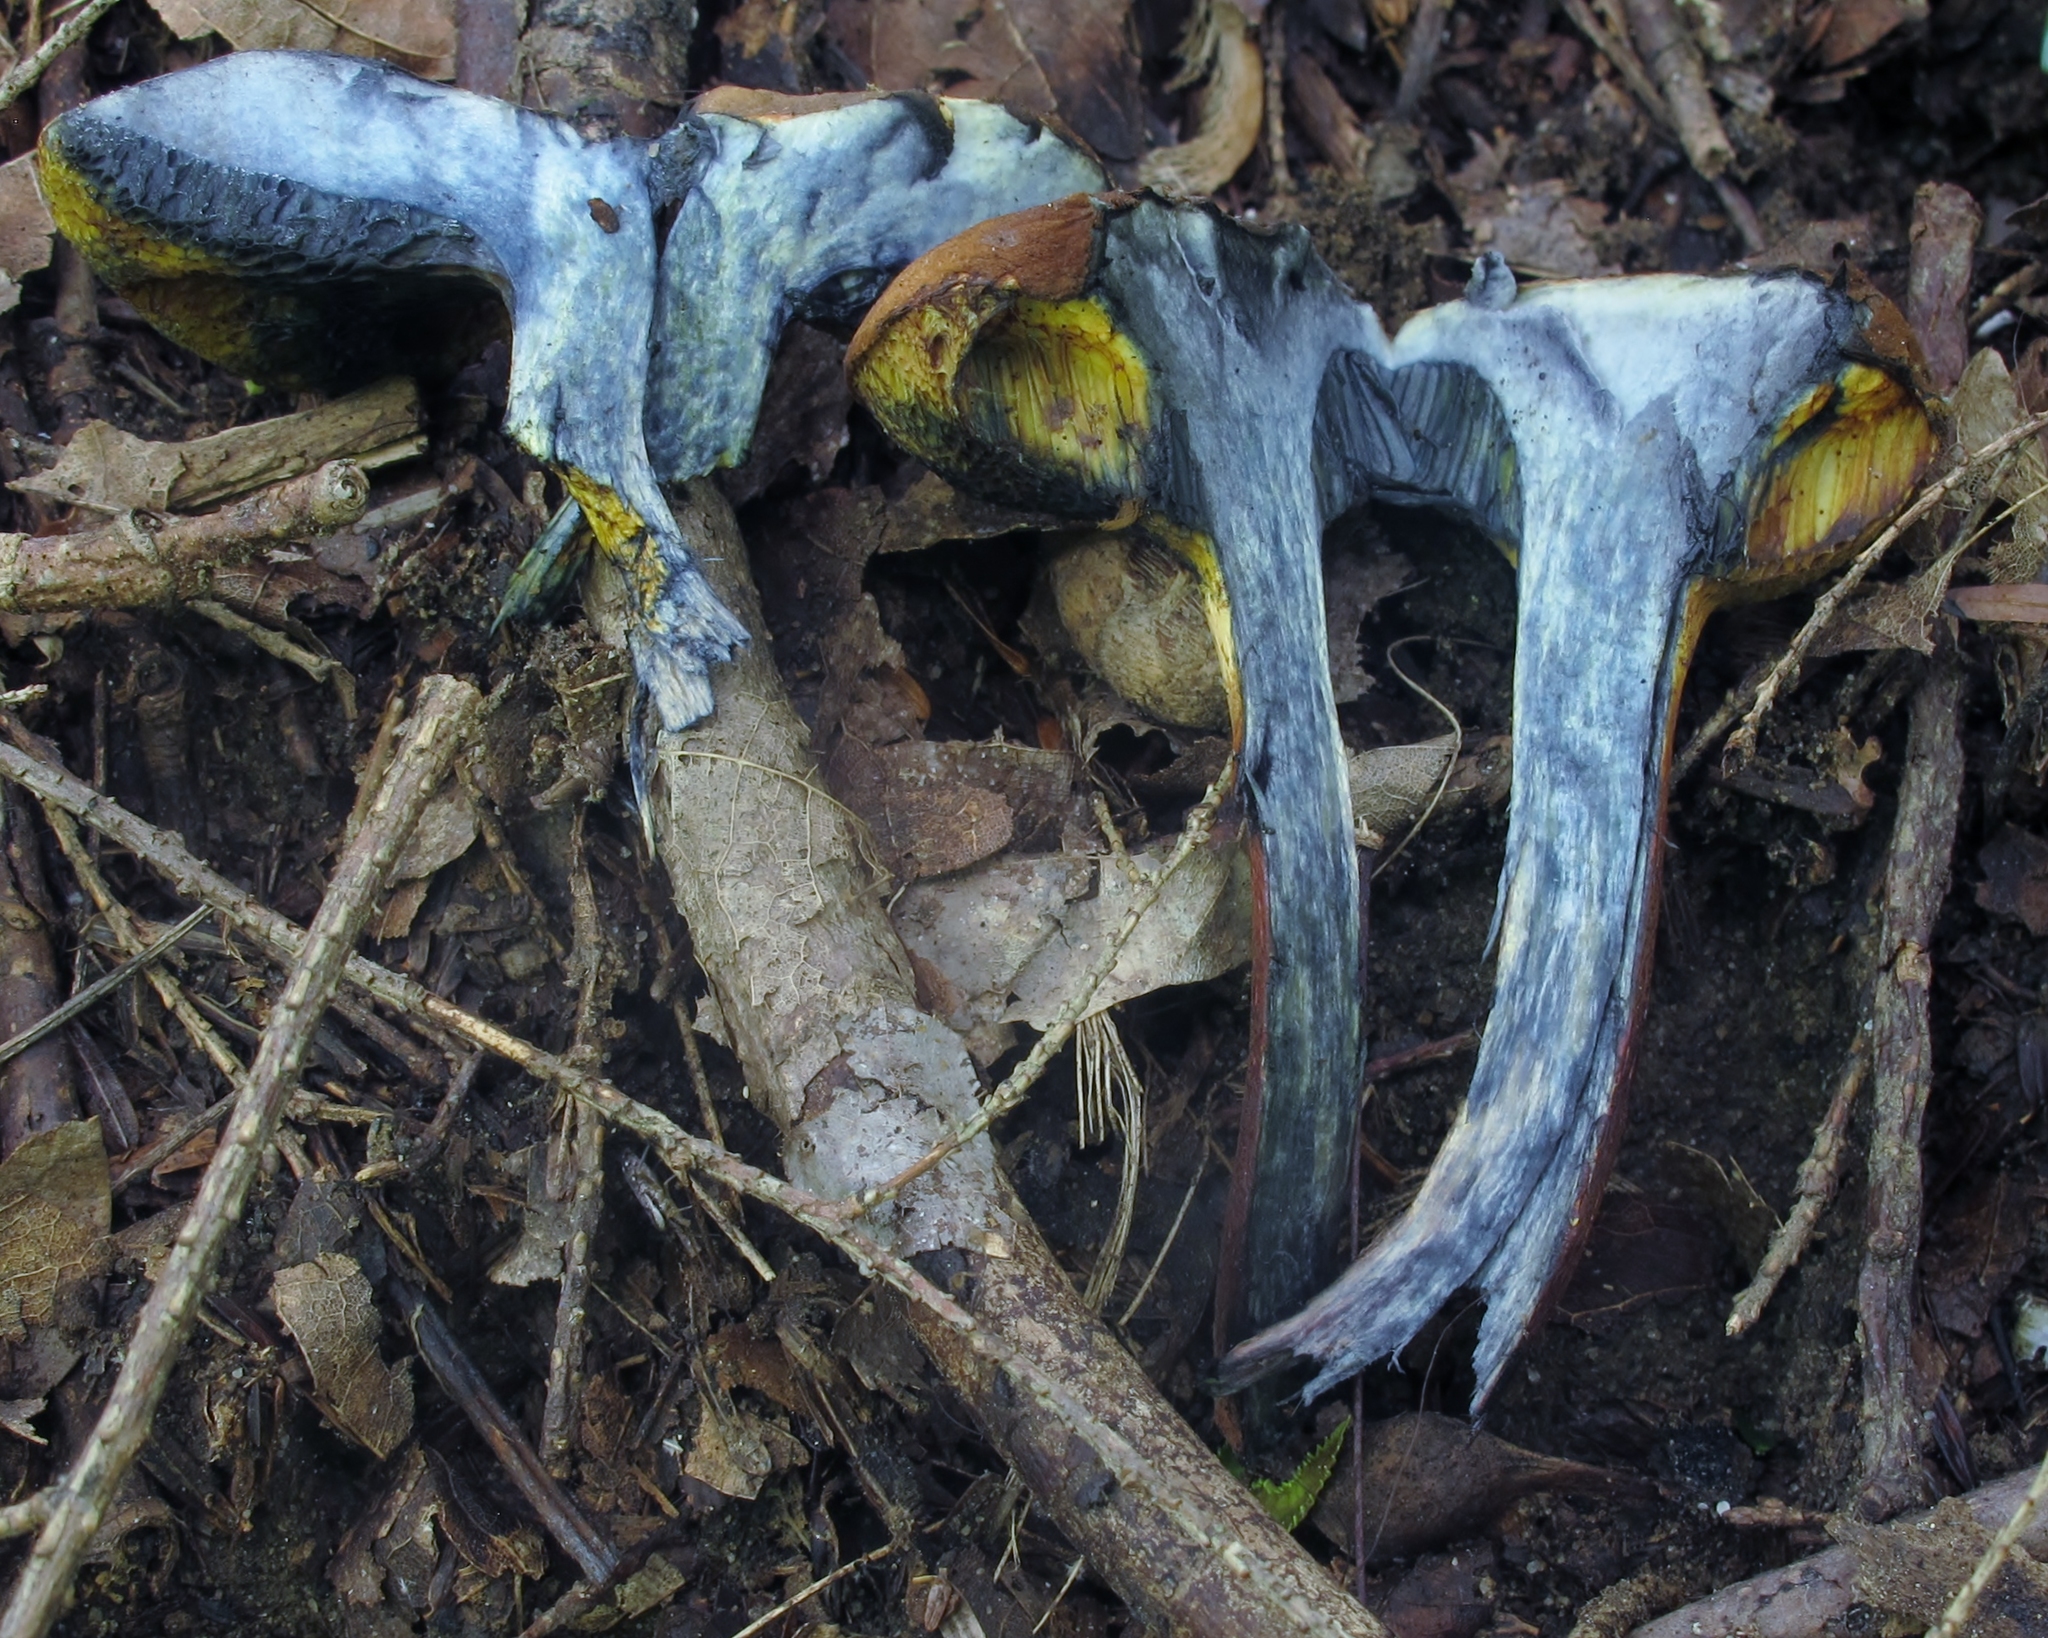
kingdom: Fungi
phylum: Basidiomycota
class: Agaricomycetes
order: Boletales
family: Boletaceae
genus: Cyanoboletus
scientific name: Cyanoboletus pulverulentus
